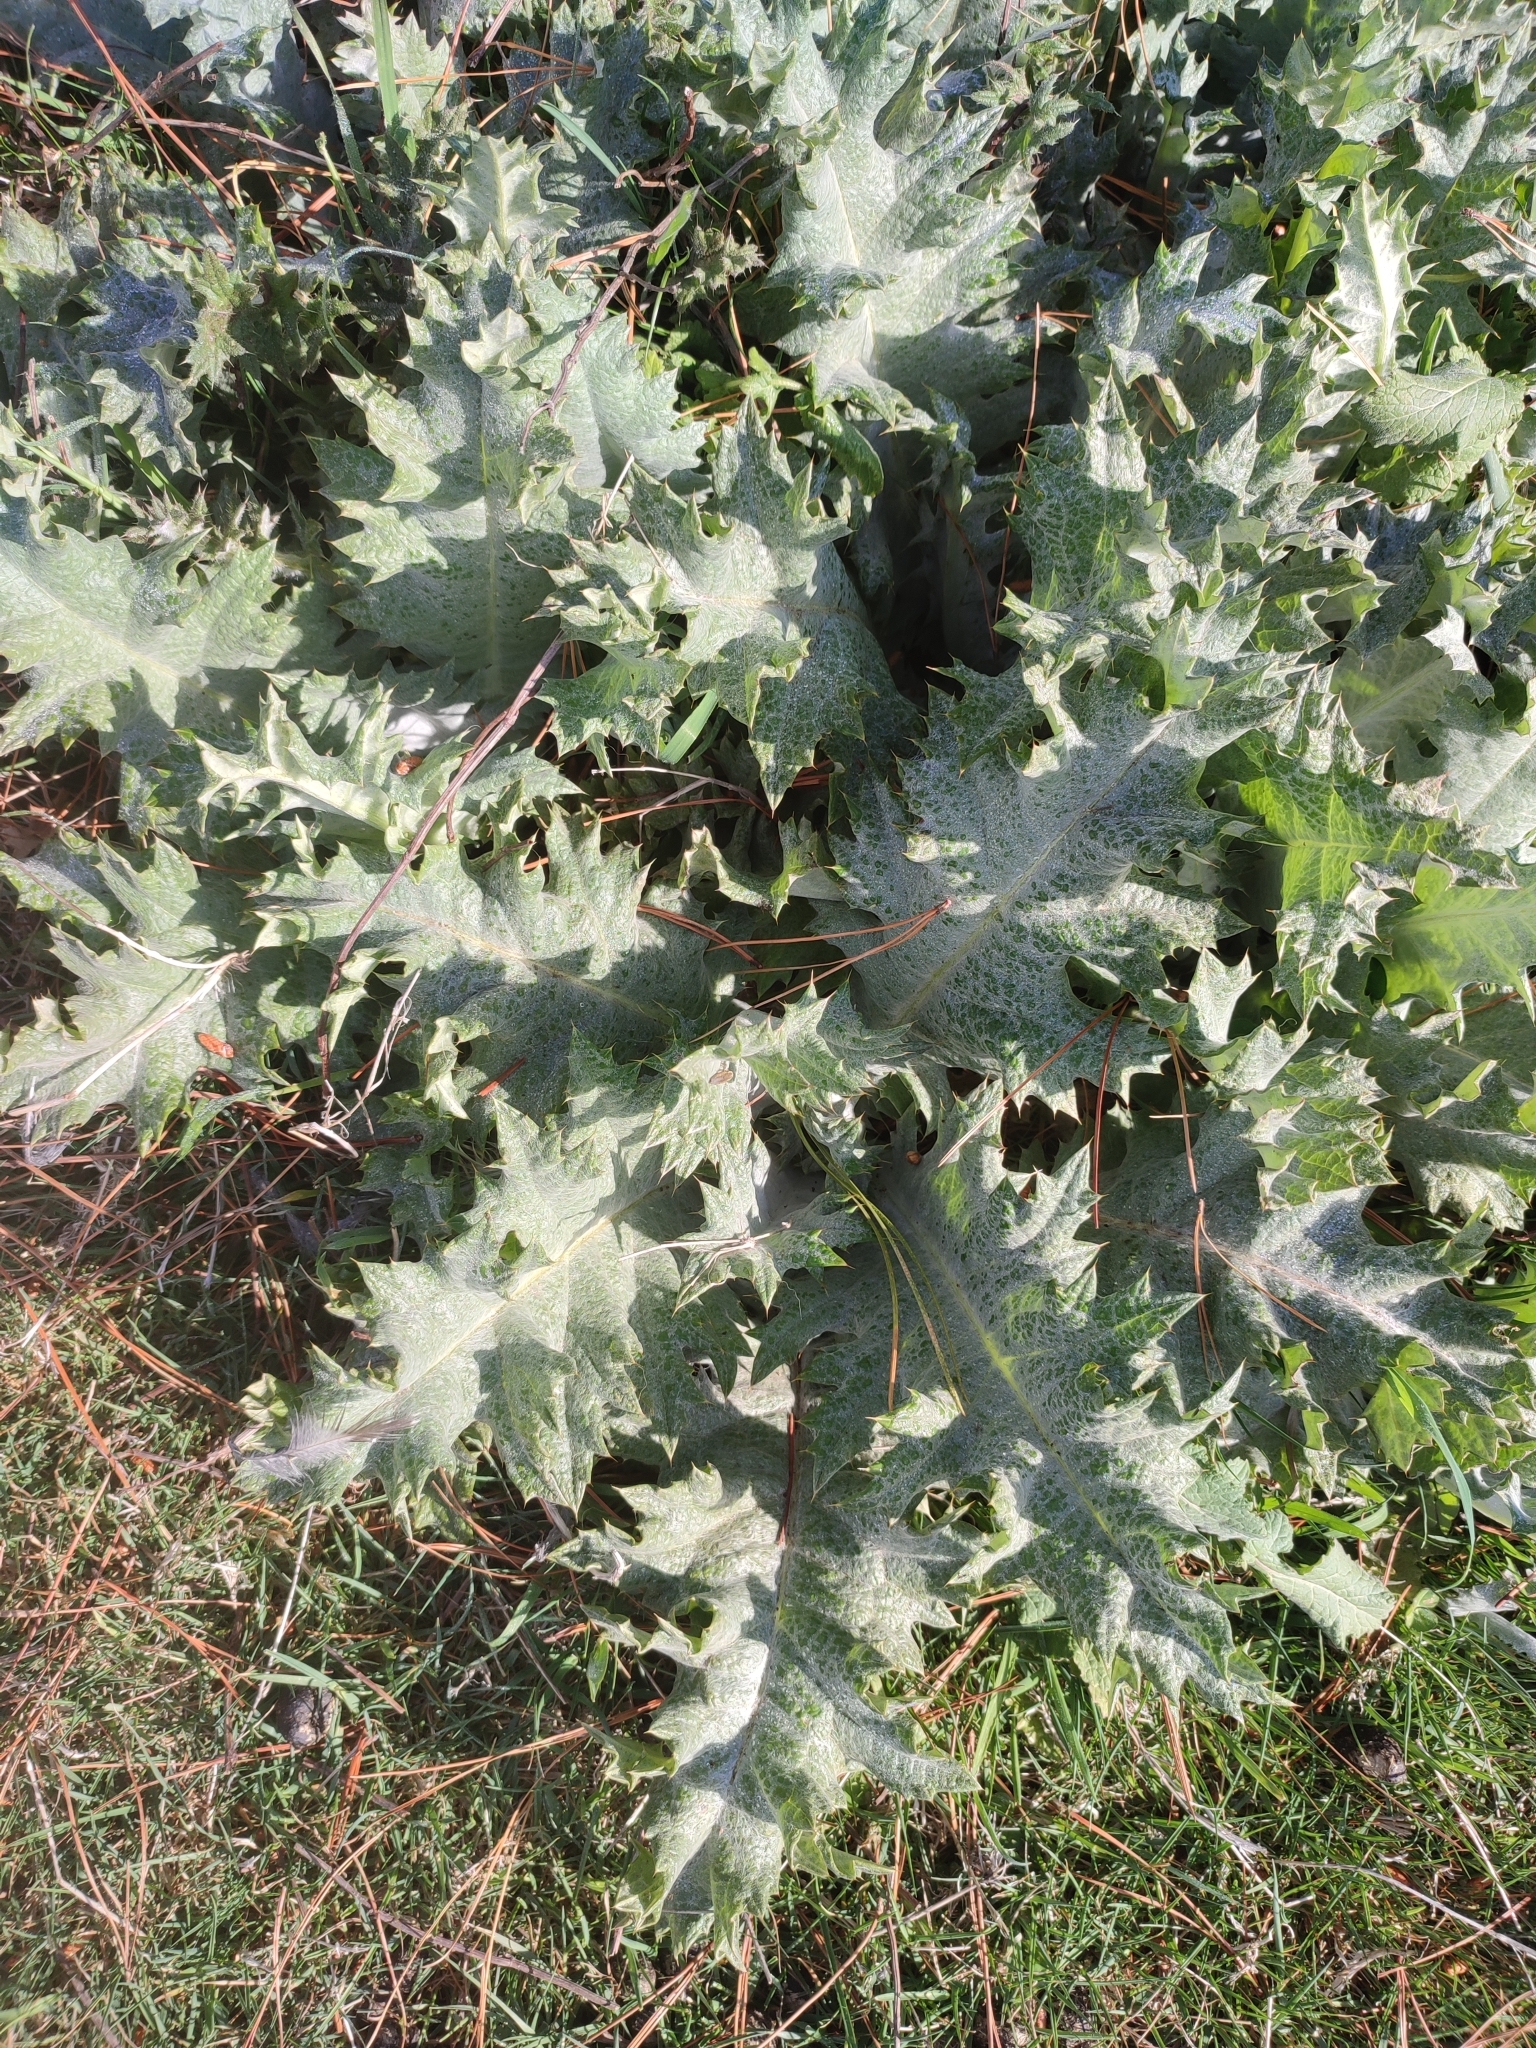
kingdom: Plantae
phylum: Tracheophyta
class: Magnoliopsida
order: Asterales
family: Asteraceae
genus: Onopordum
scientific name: Onopordum acanthium
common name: Scotch thistle
